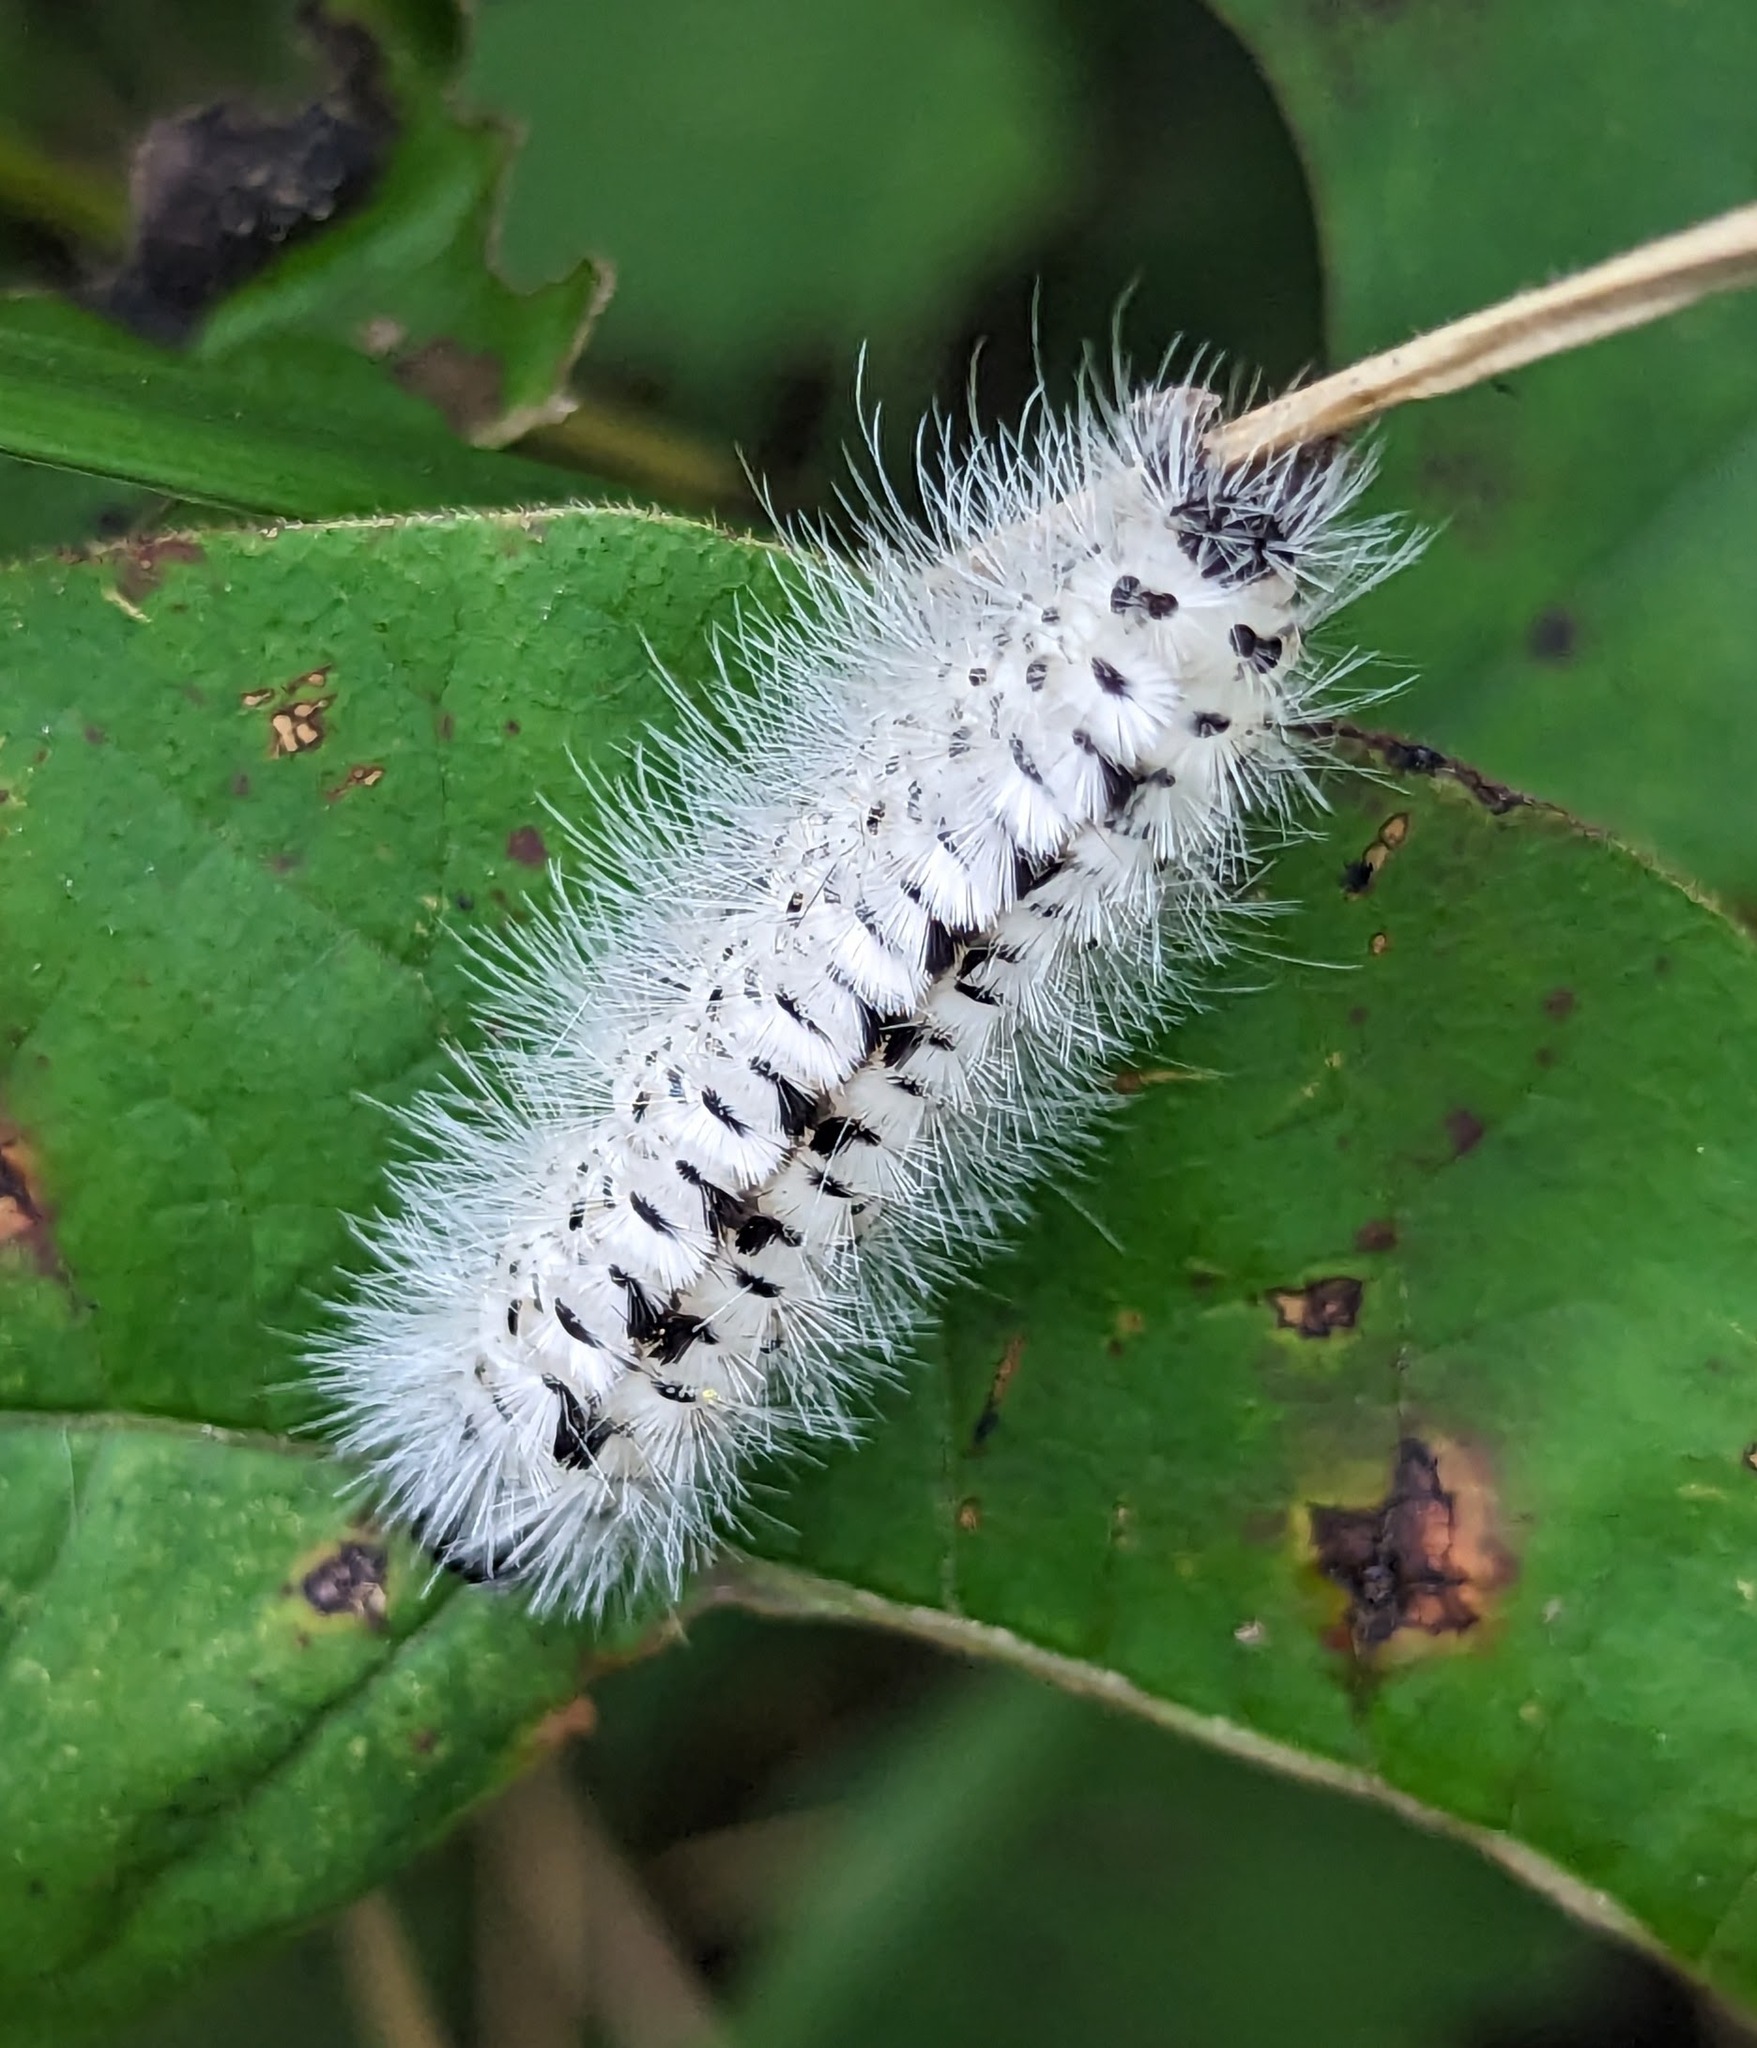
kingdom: Animalia
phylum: Arthropoda
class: Insecta
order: Lepidoptera
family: Erebidae
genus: Lophocampa
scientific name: Lophocampa caryae
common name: Hickory tussock moth
